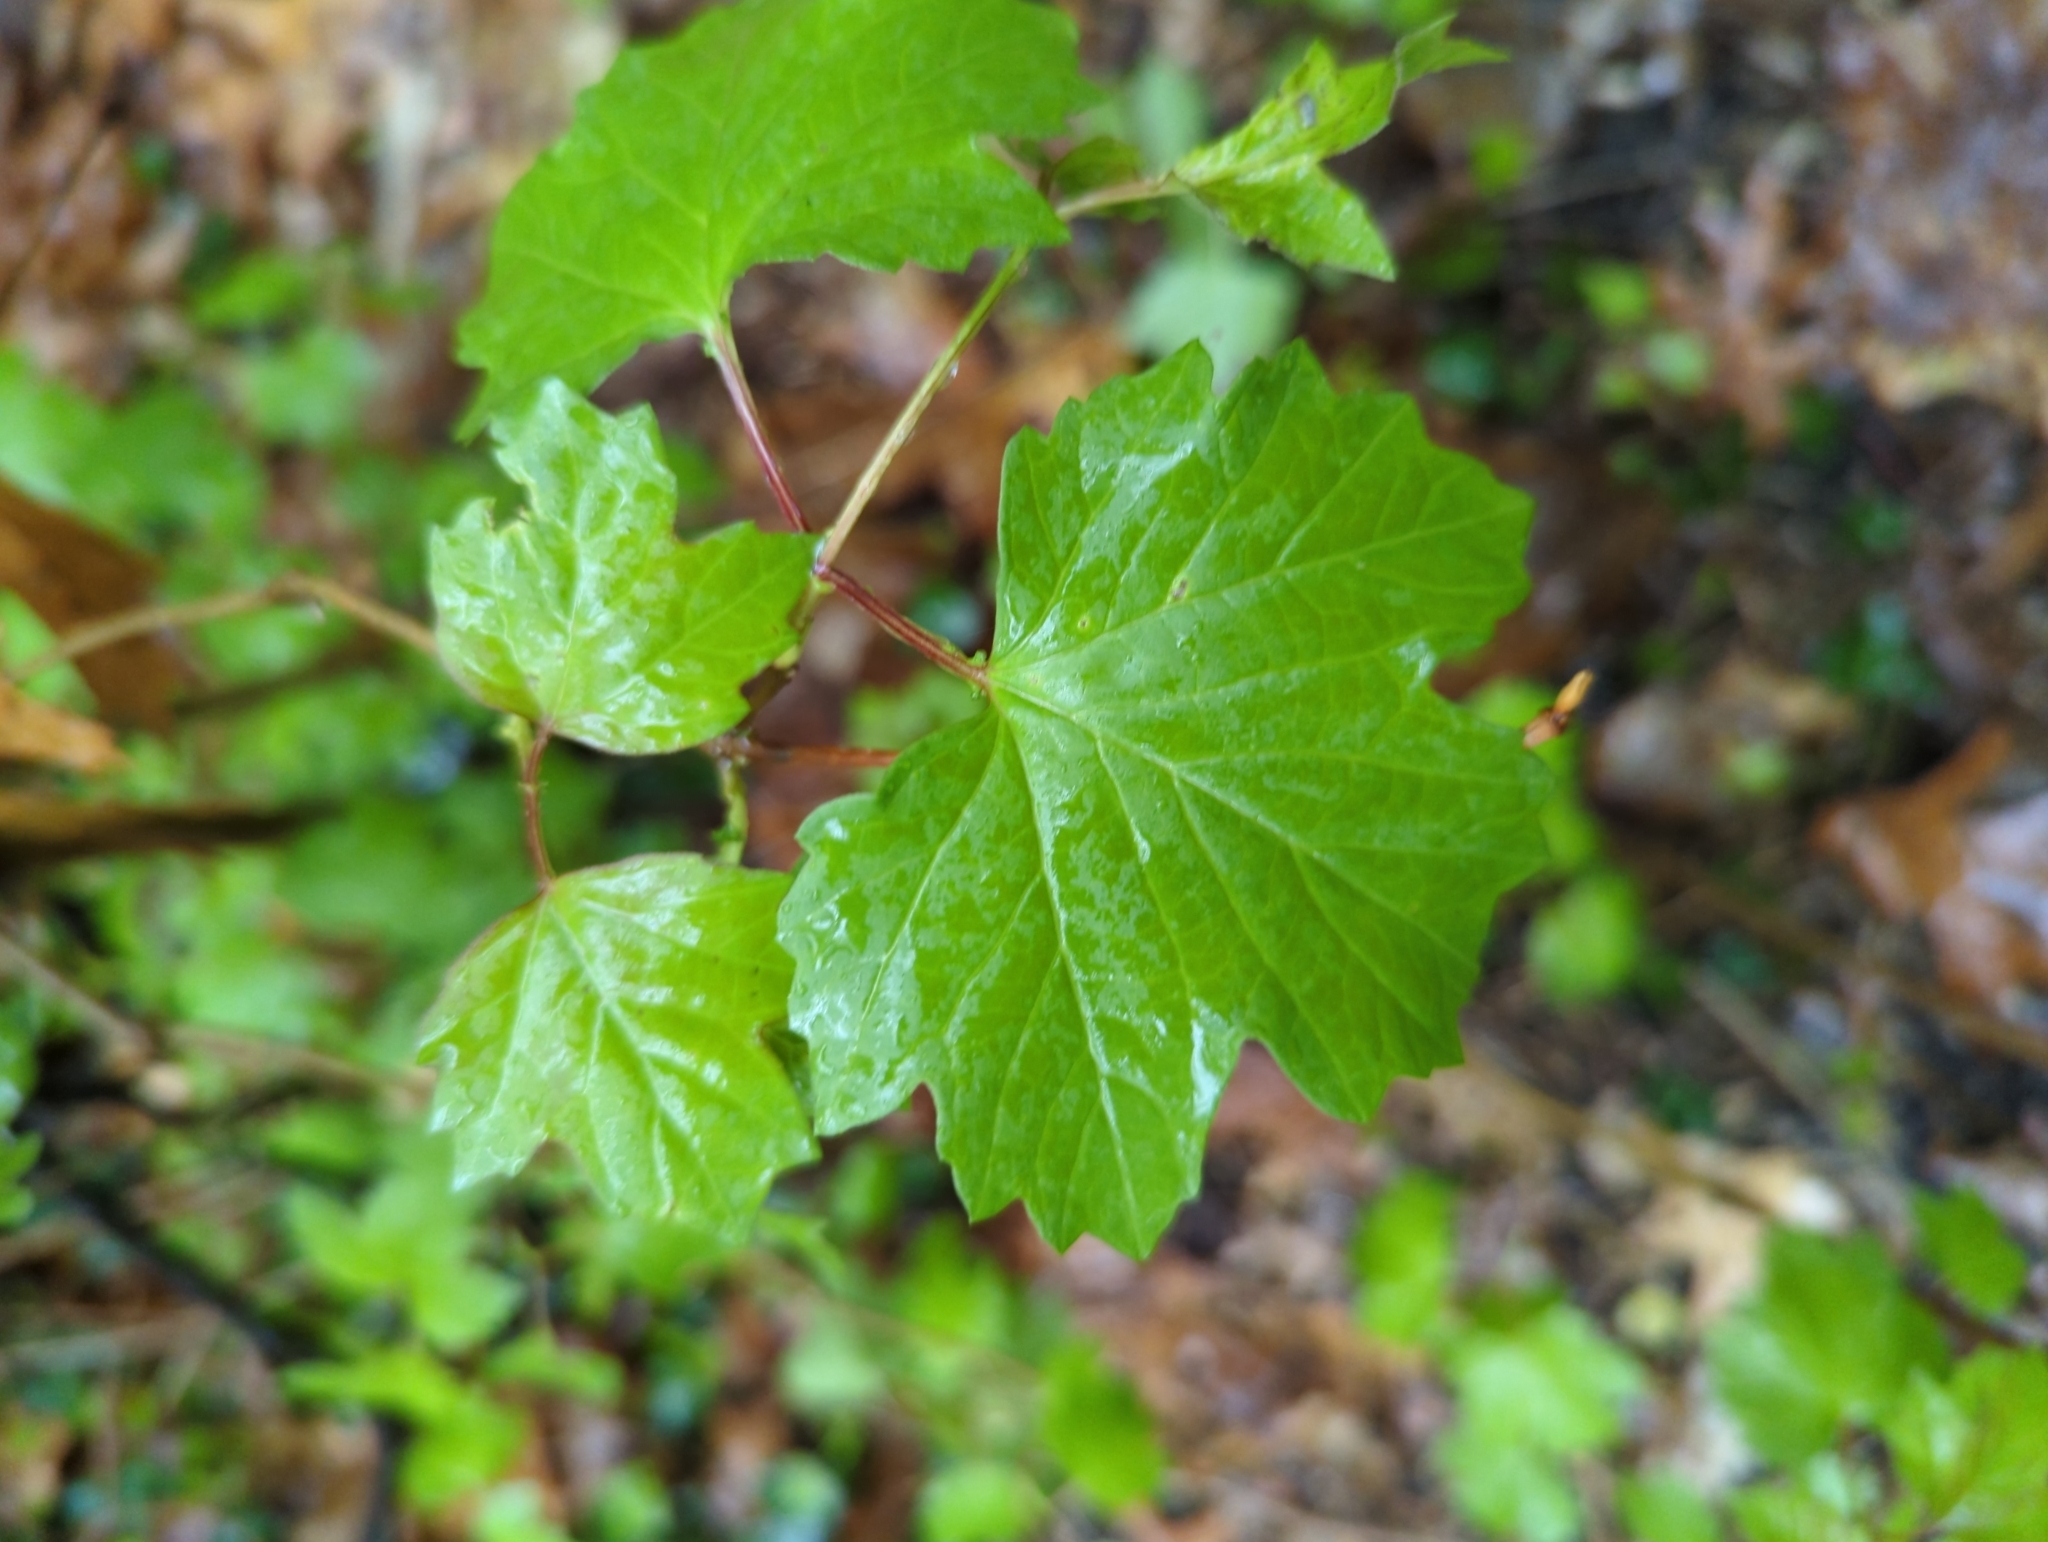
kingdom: Plantae
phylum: Tracheophyta
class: Magnoliopsida
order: Dipsacales
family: Viburnaceae
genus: Viburnum
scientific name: Viburnum opulus
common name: Guelder-rose
